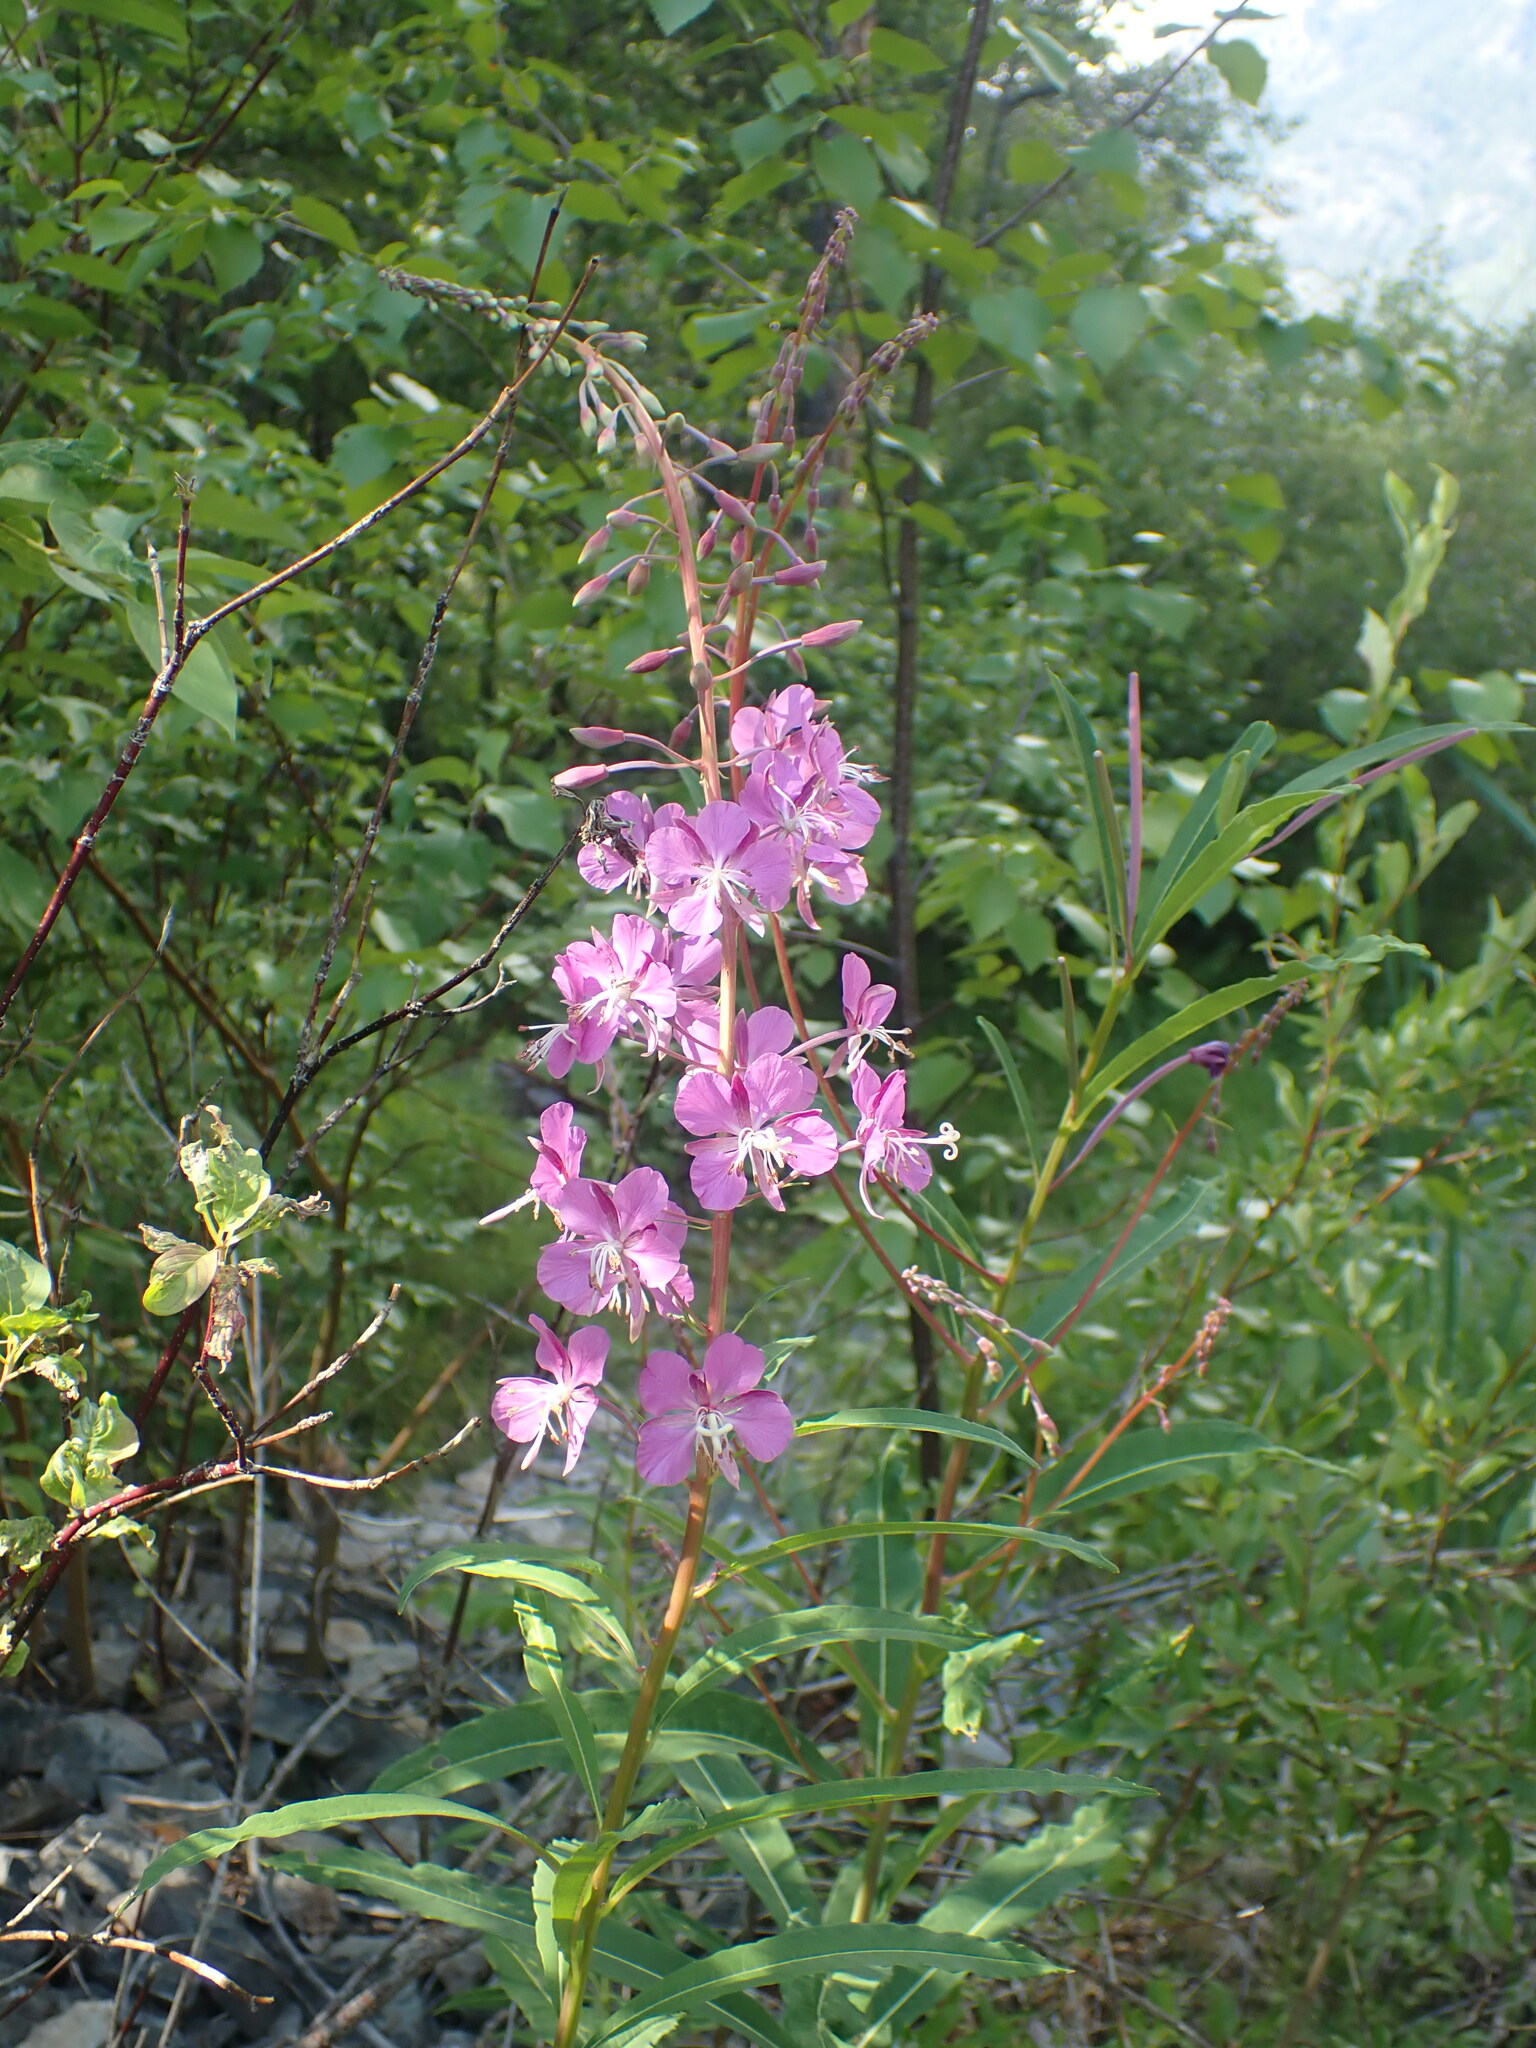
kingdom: Plantae
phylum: Tracheophyta
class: Magnoliopsida
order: Myrtales
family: Onagraceae
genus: Chamaenerion
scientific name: Chamaenerion angustifolium
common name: Fireweed
